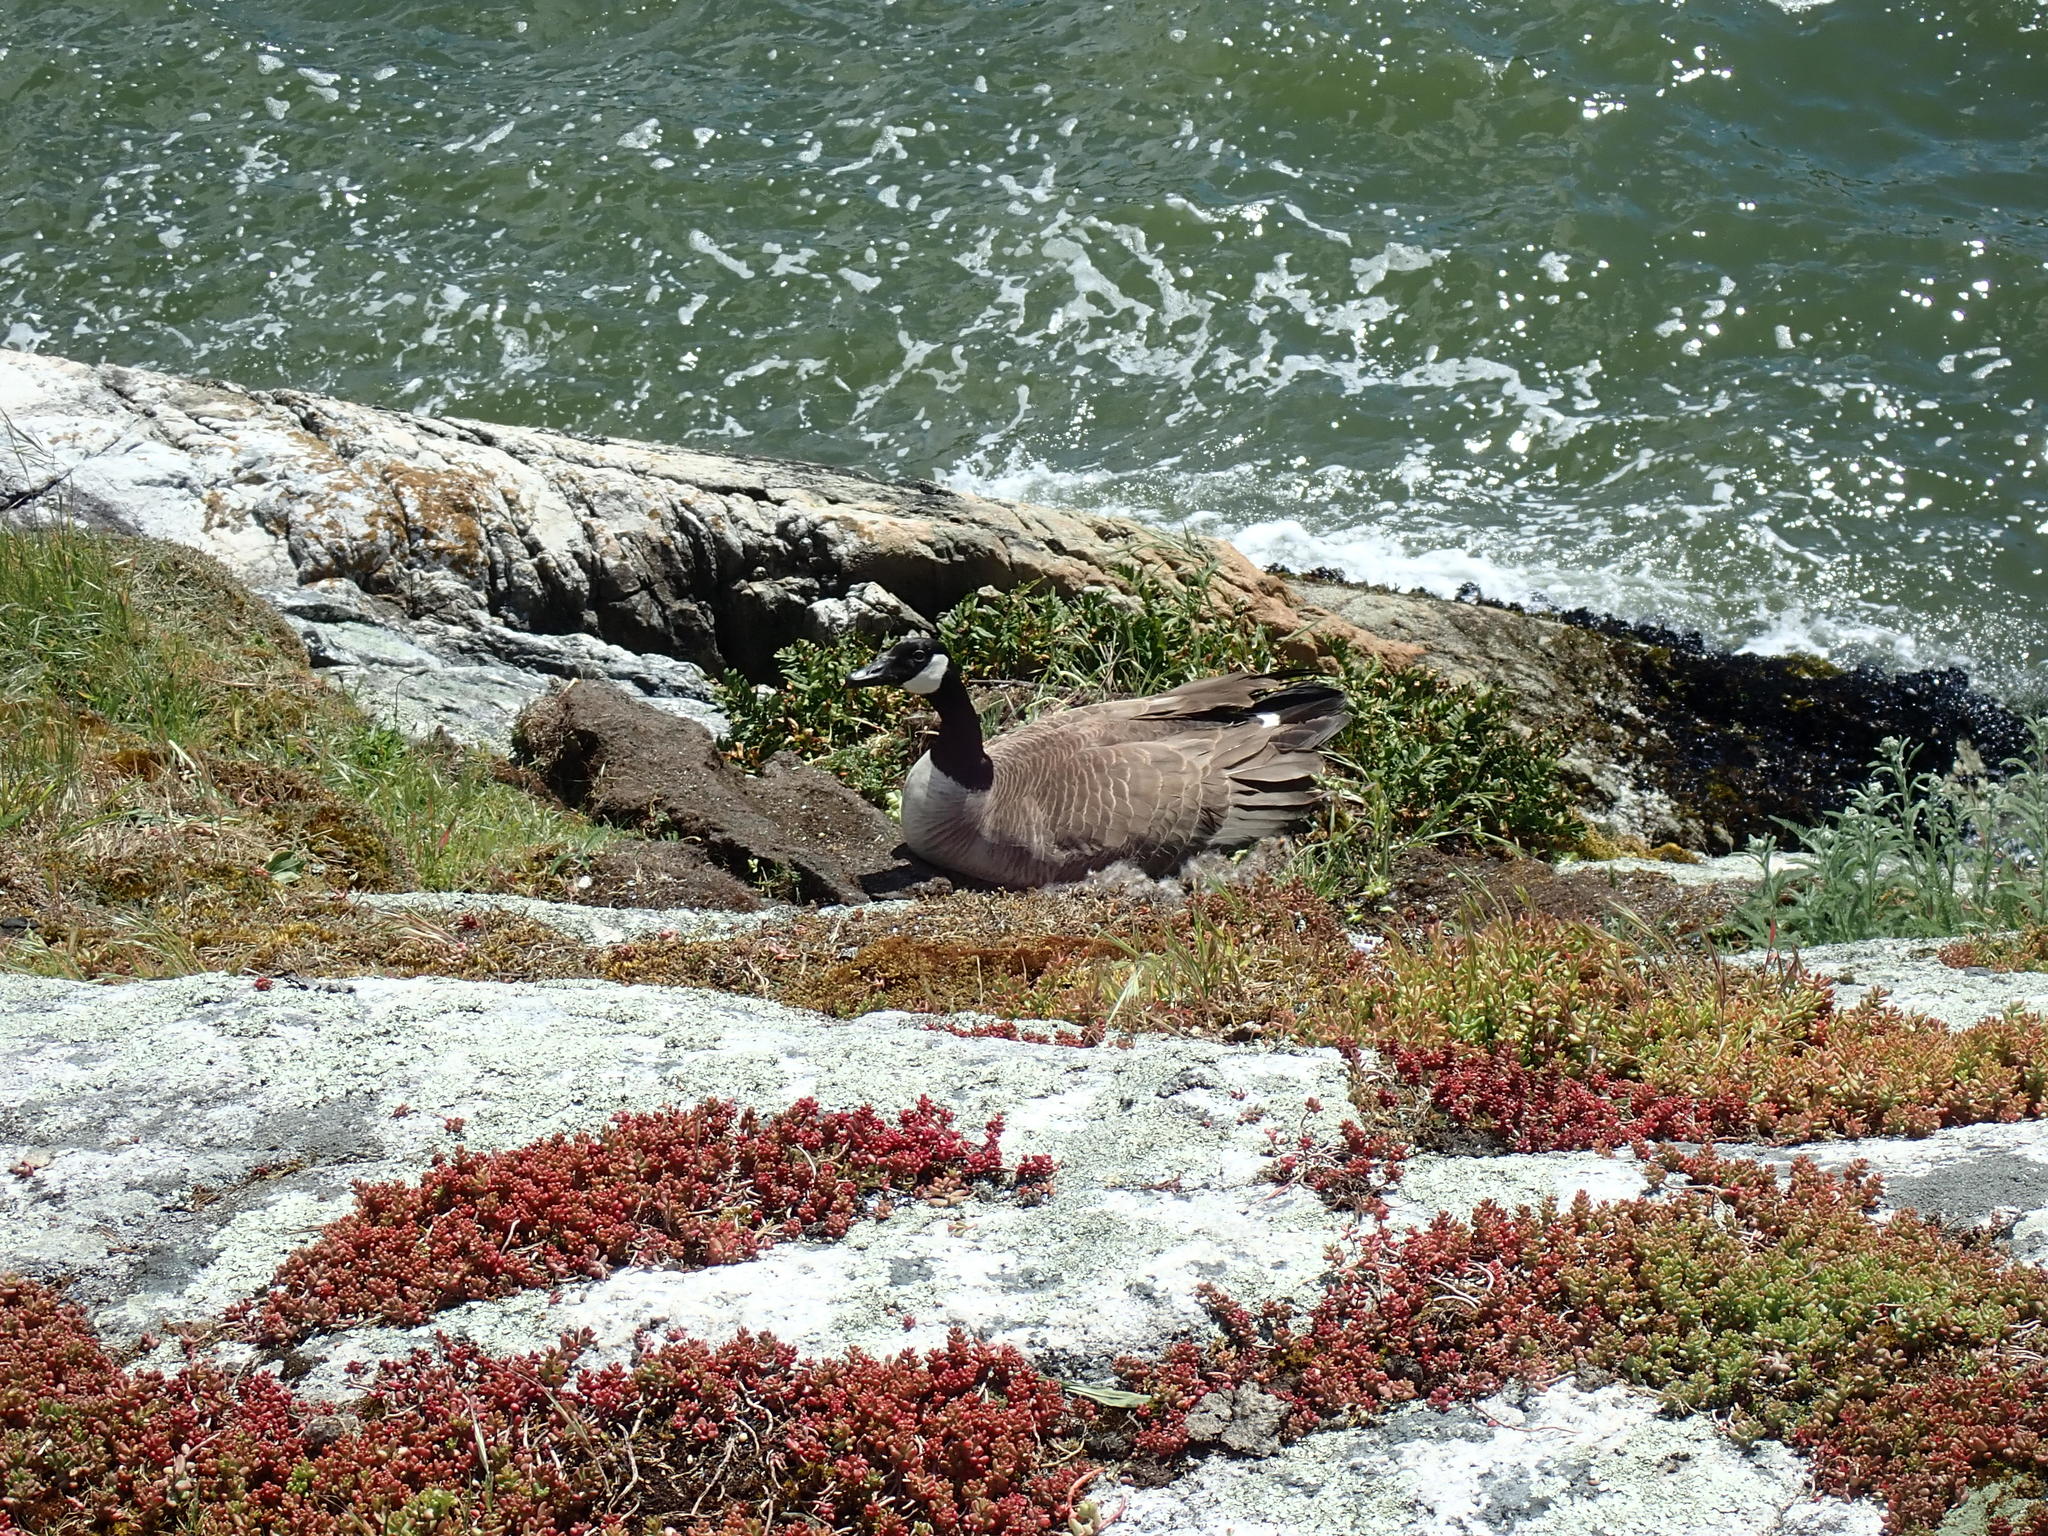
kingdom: Animalia
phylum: Chordata
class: Aves
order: Anseriformes
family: Anatidae
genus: Branta
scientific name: Branta canadensis
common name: Canada goose
